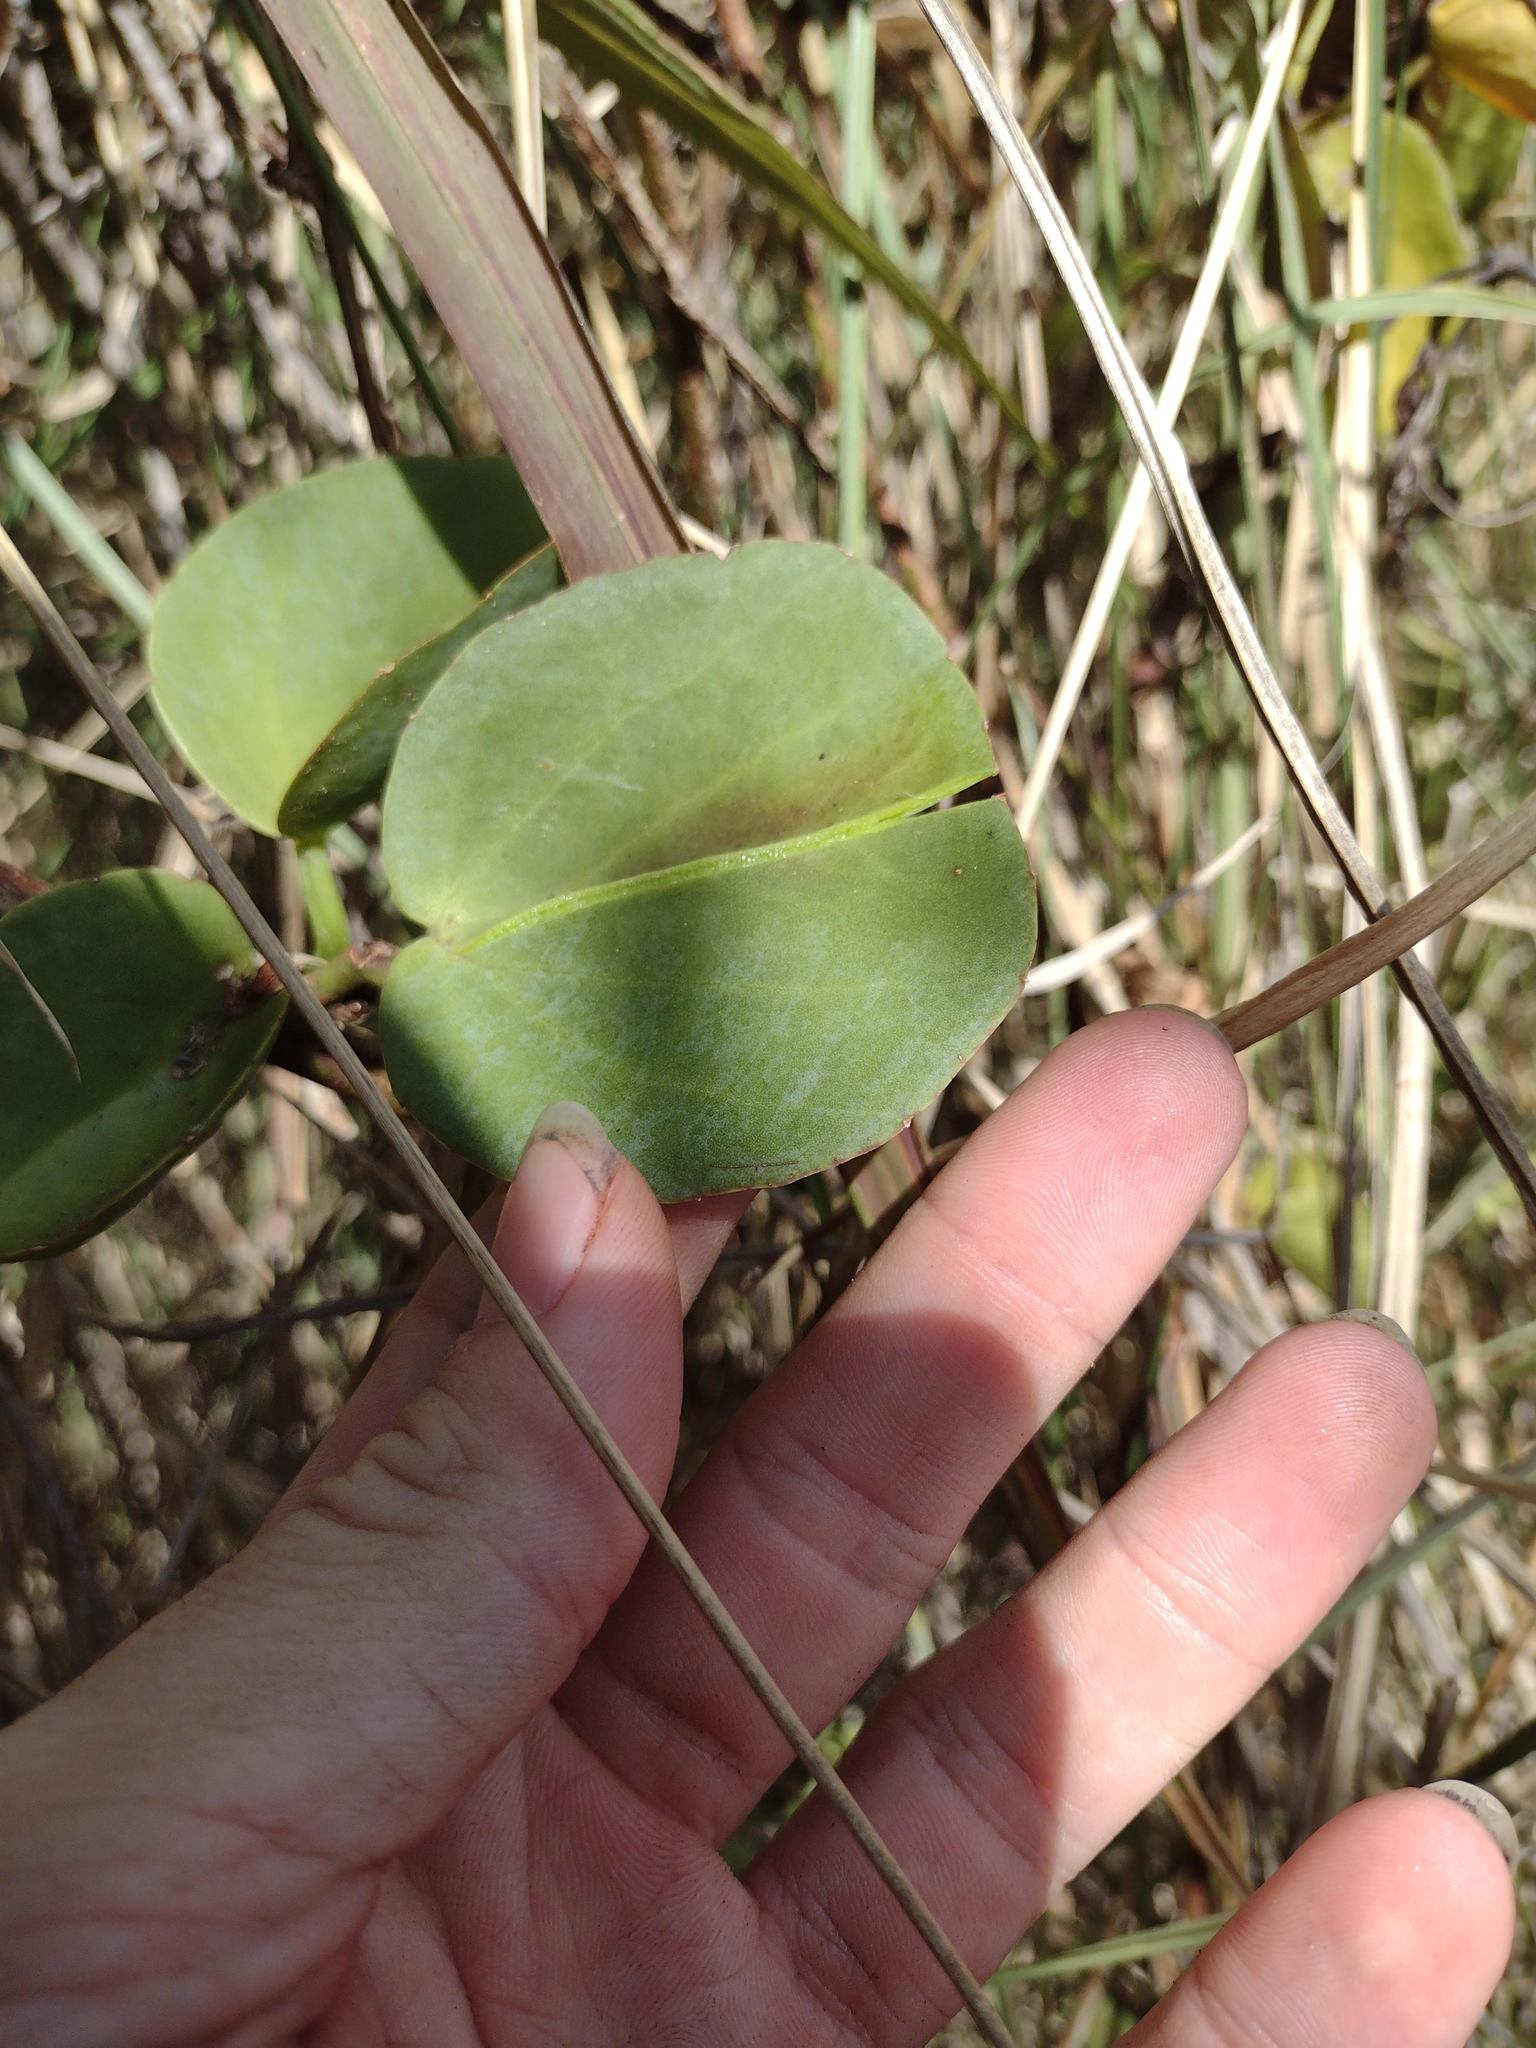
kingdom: Plantae
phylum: Tracheophyta
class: Magnoliopsida
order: Vitales
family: Vitaceae
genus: Cissus
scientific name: Cissus rotundifolia
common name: Arabian wax cissus
